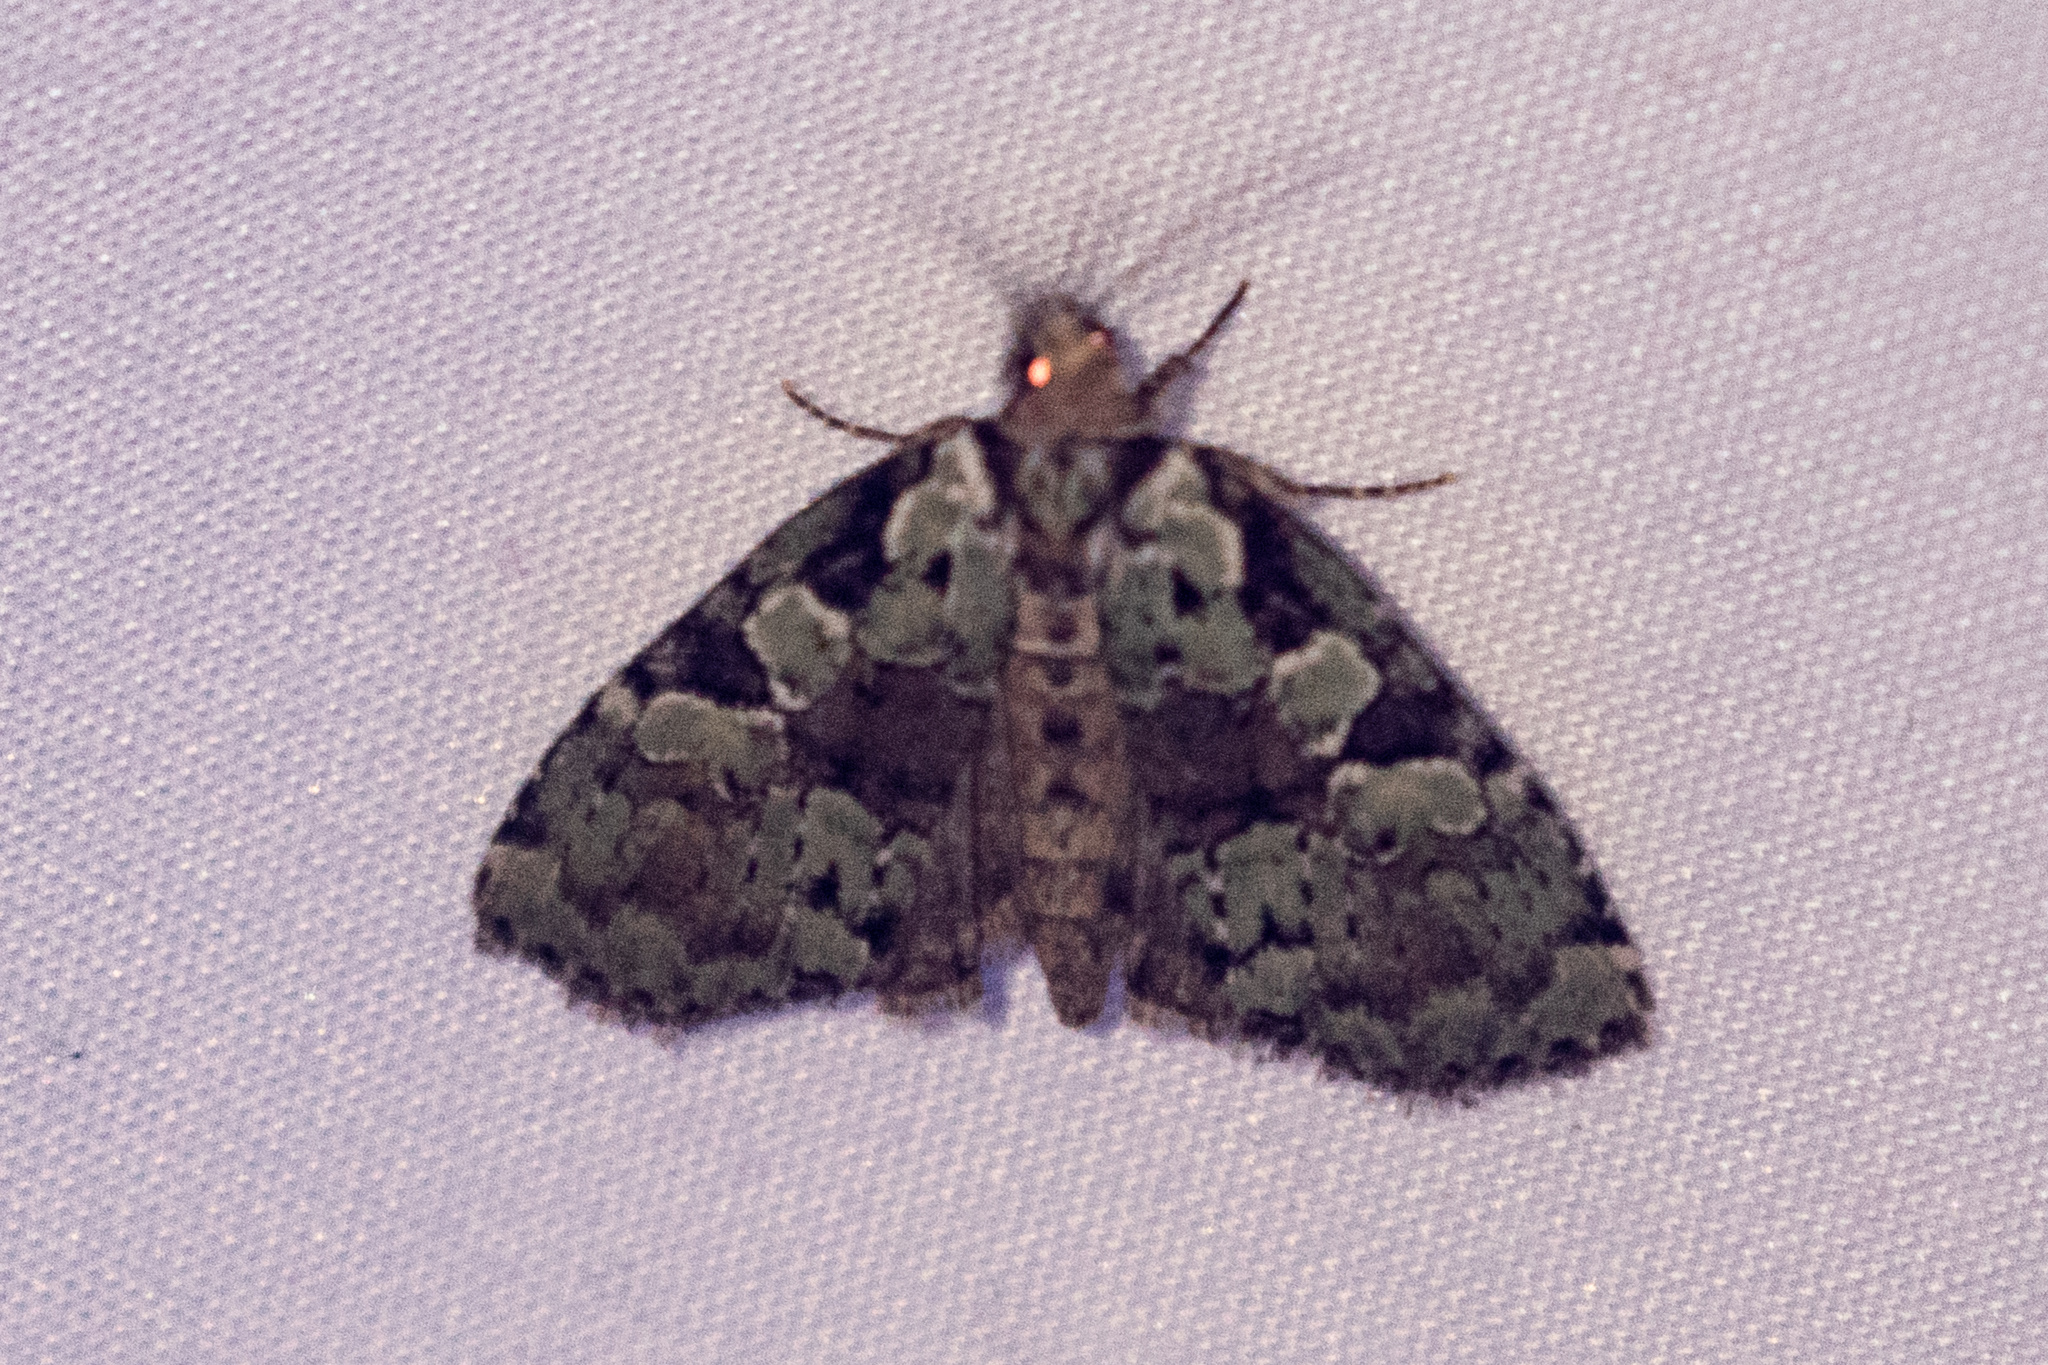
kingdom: Animalia
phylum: Arthropoda
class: Insecta
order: Lepidoptera
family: Noctuidae
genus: Leuconycta
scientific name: Leuconycta lepidula
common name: Marbled-green leuconycta moth
